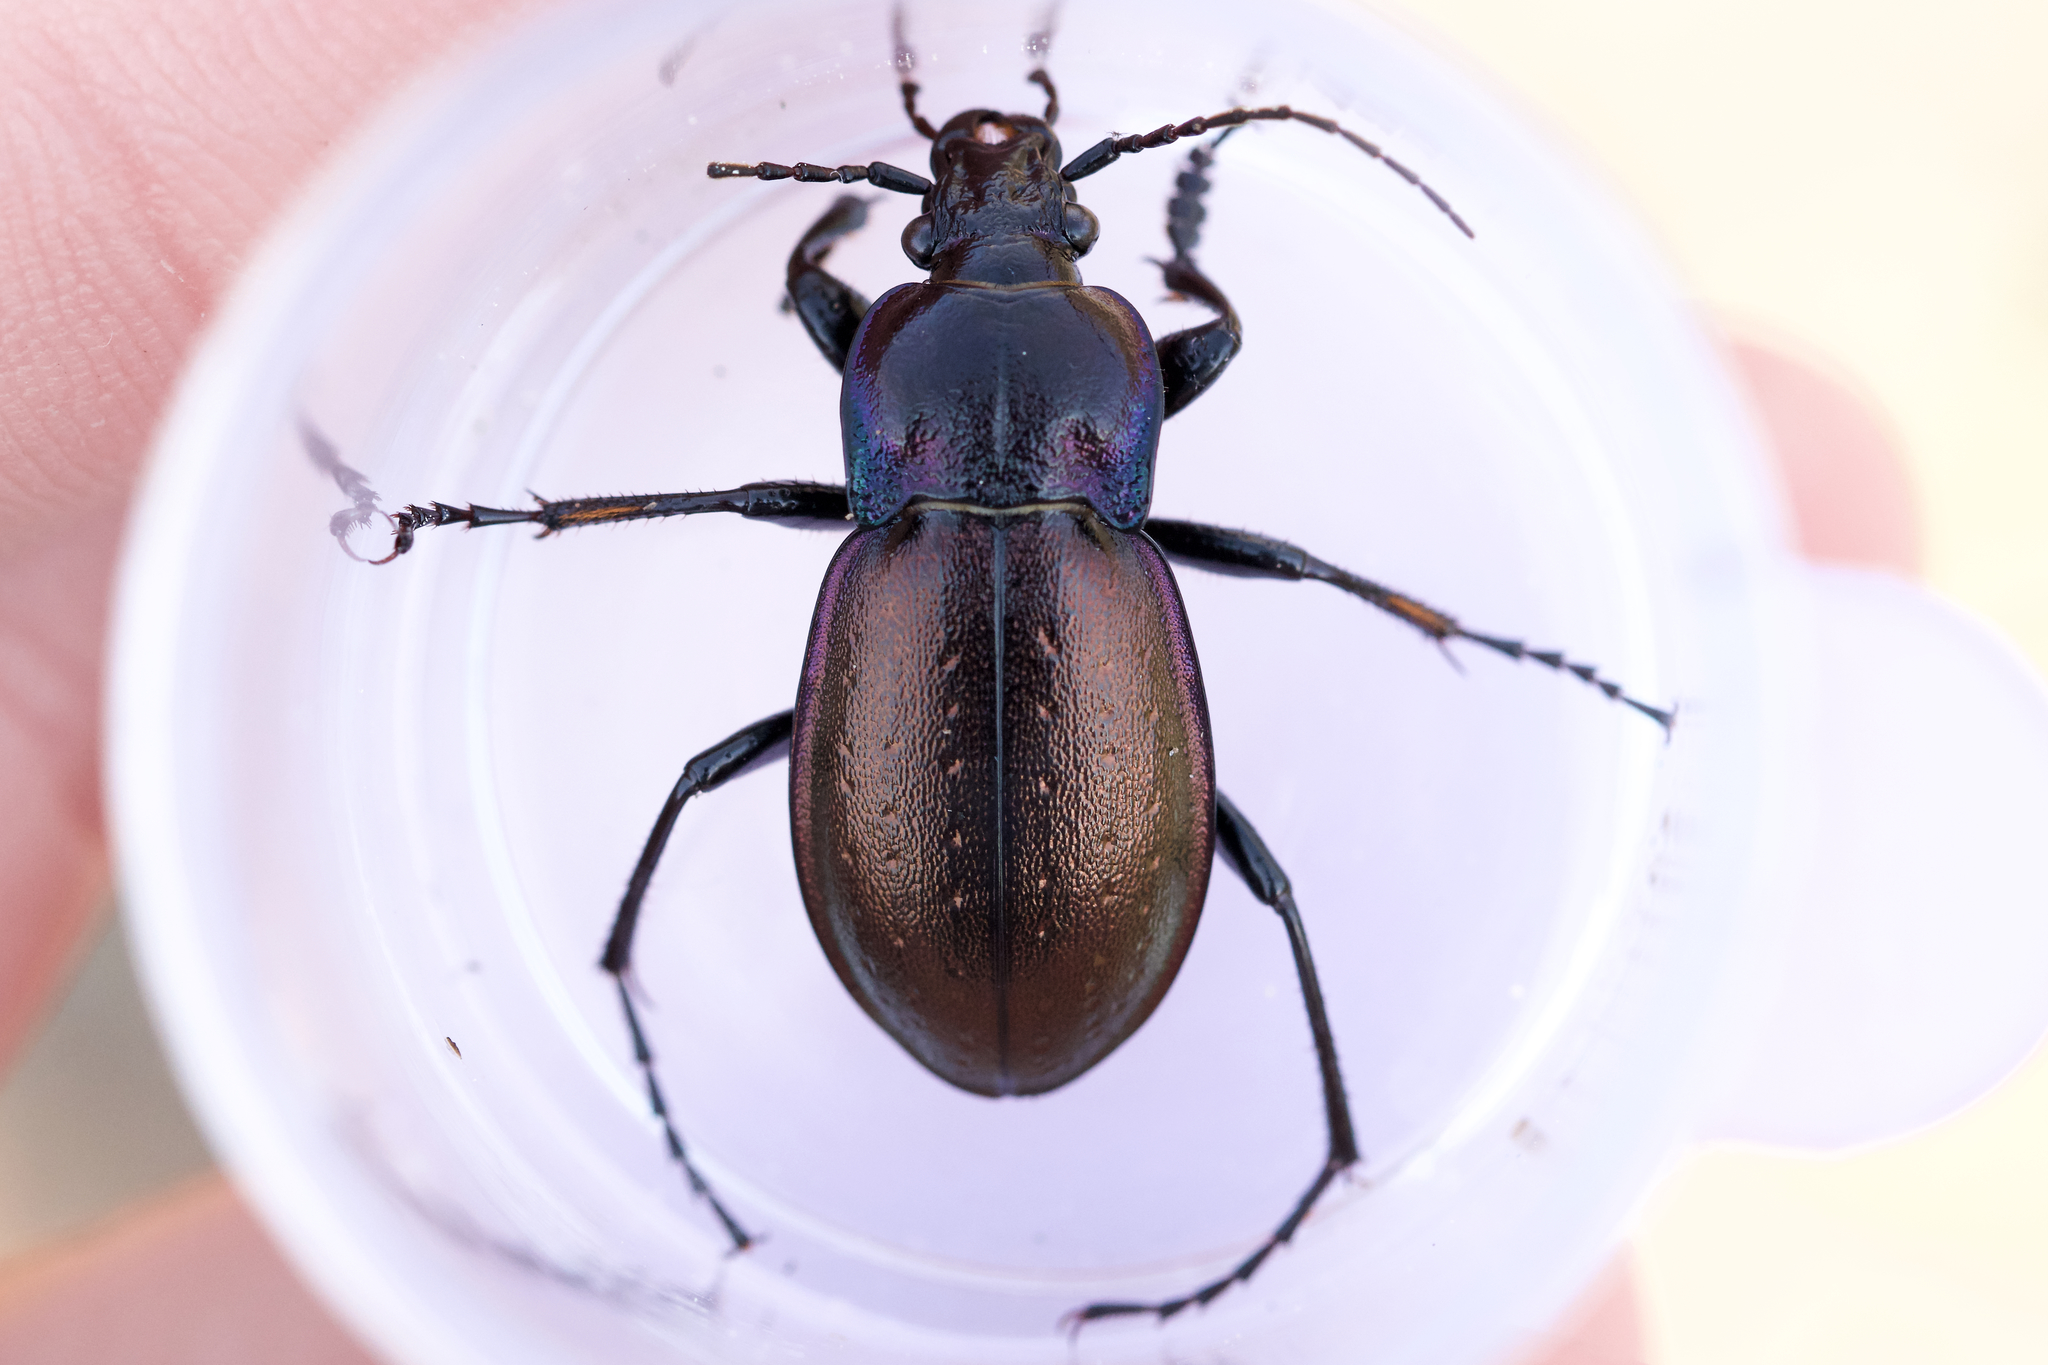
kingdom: Animalia
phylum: Arthropoda
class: Insecta
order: Coleoptera
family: Carabidae
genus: Carabus
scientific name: Carabus nemoralis
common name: European ground beetle
